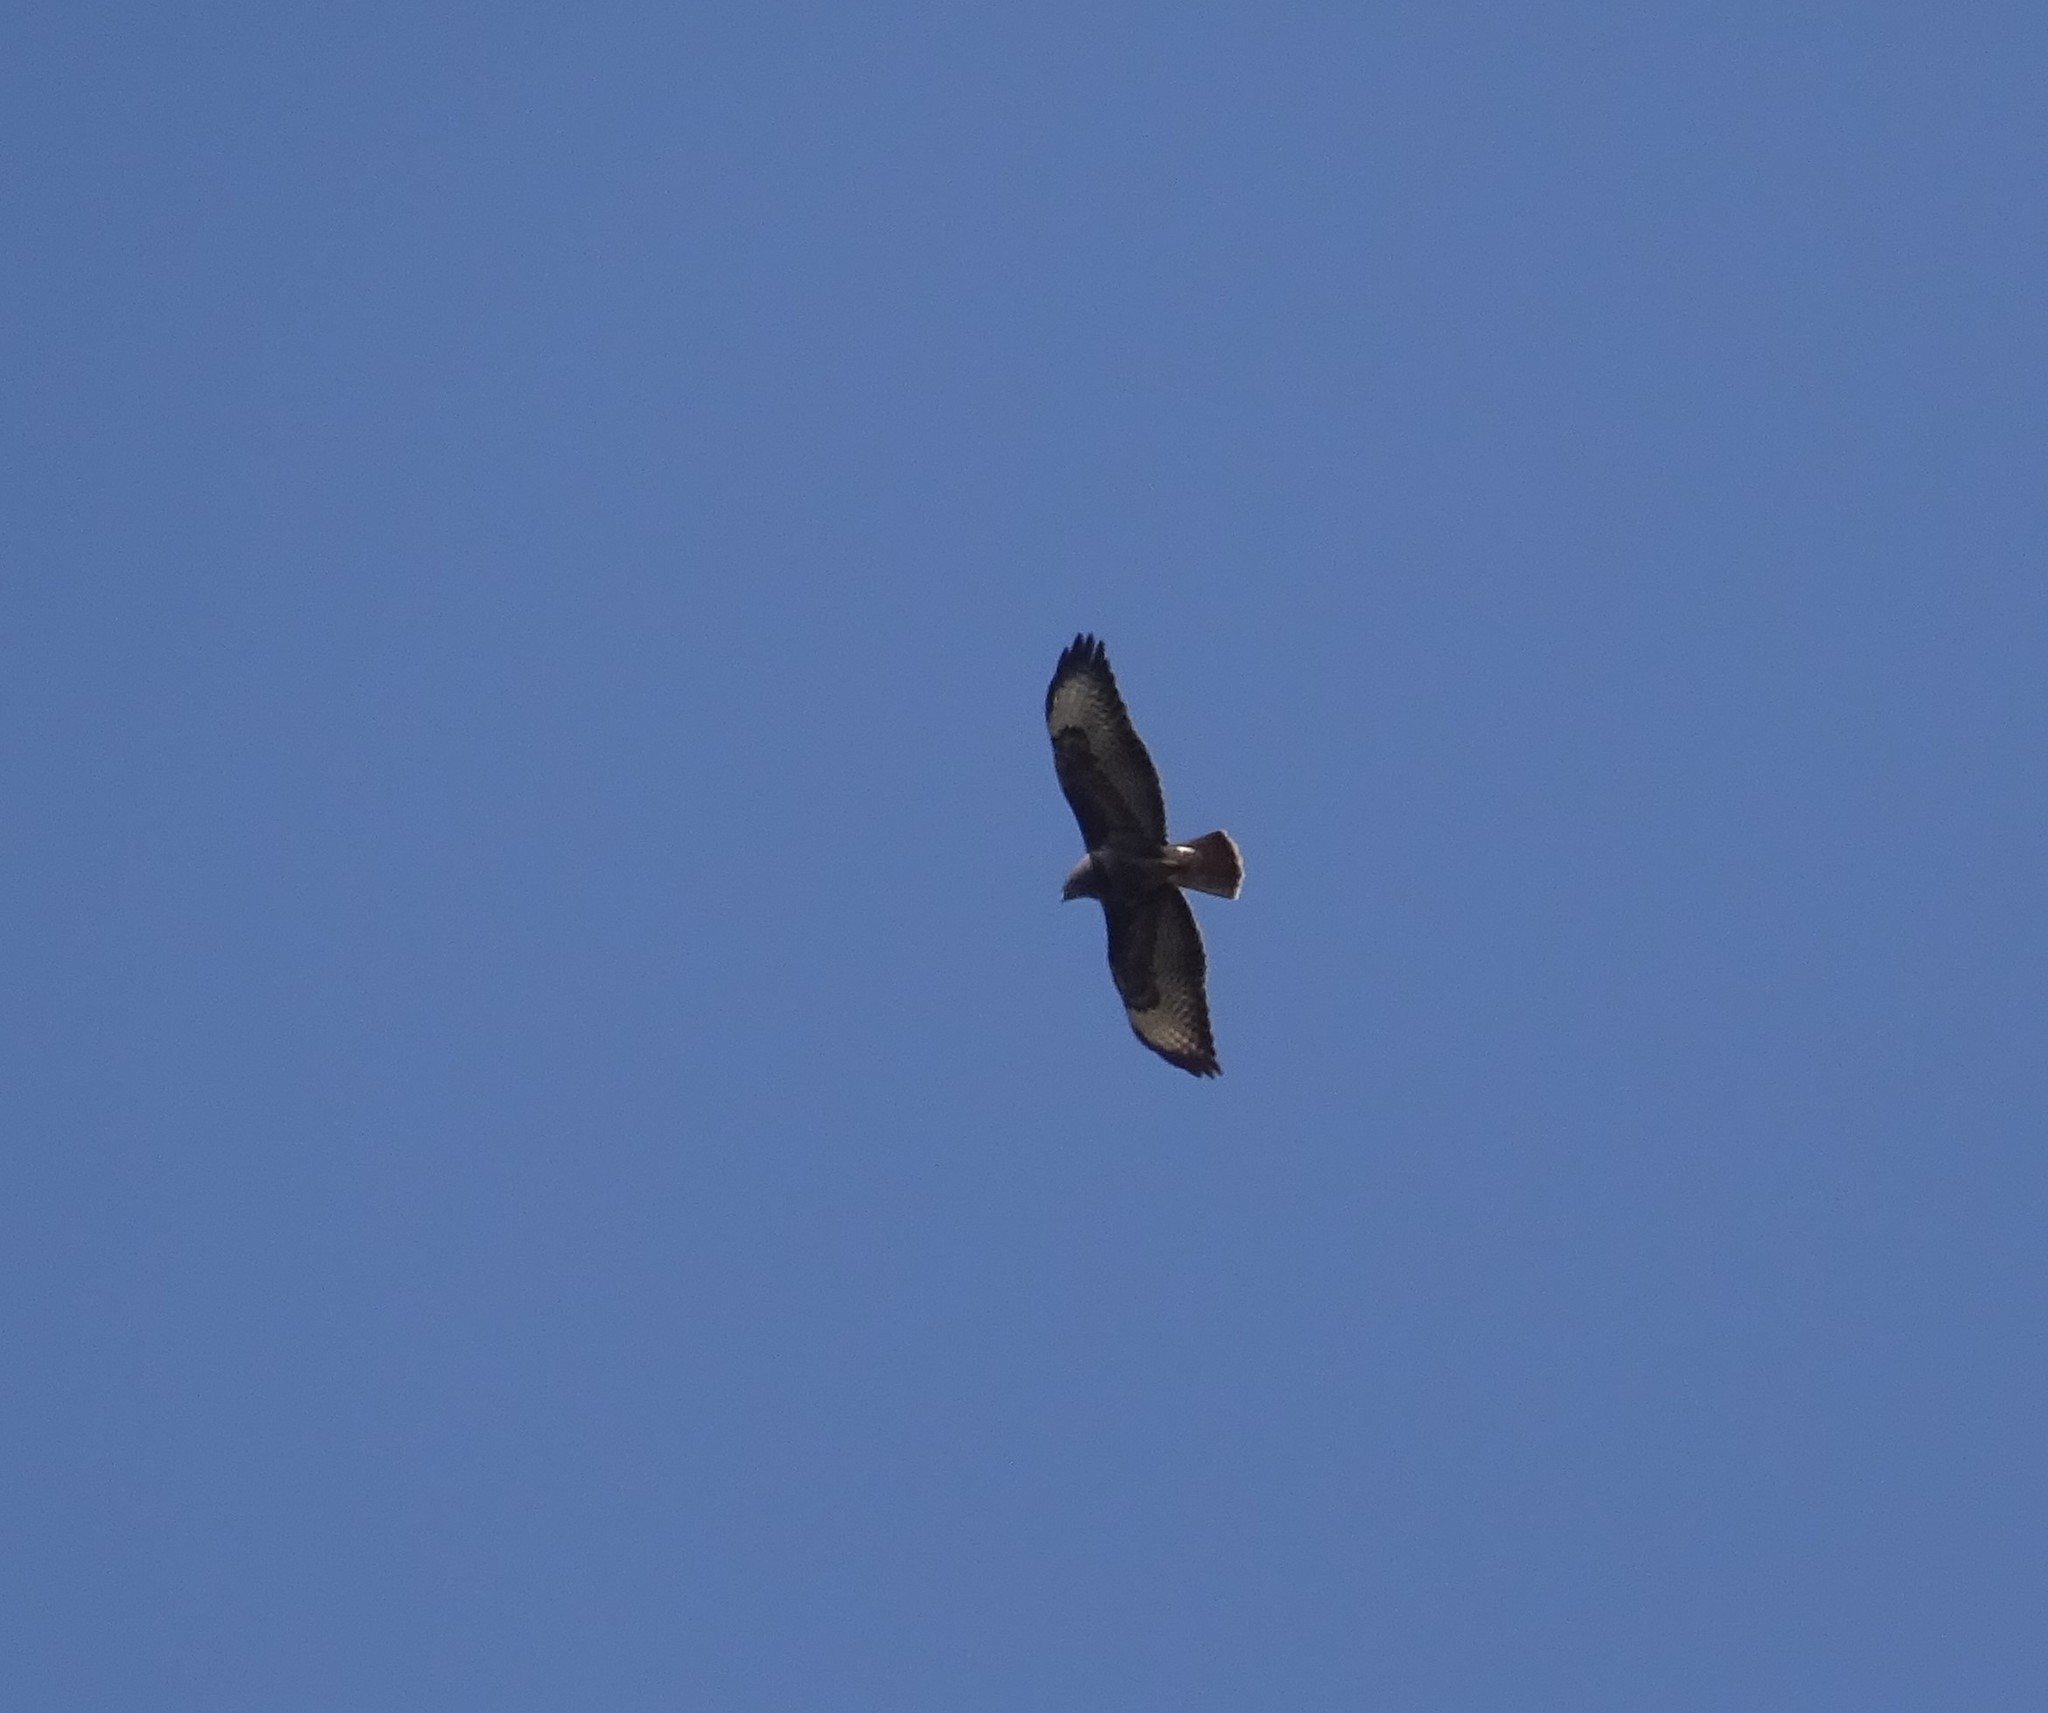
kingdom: Animalia
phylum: Chordata
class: Aves
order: Accipitriformes
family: Accipitridae
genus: Buteo
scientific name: Buteo buteo
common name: Common buzzard
